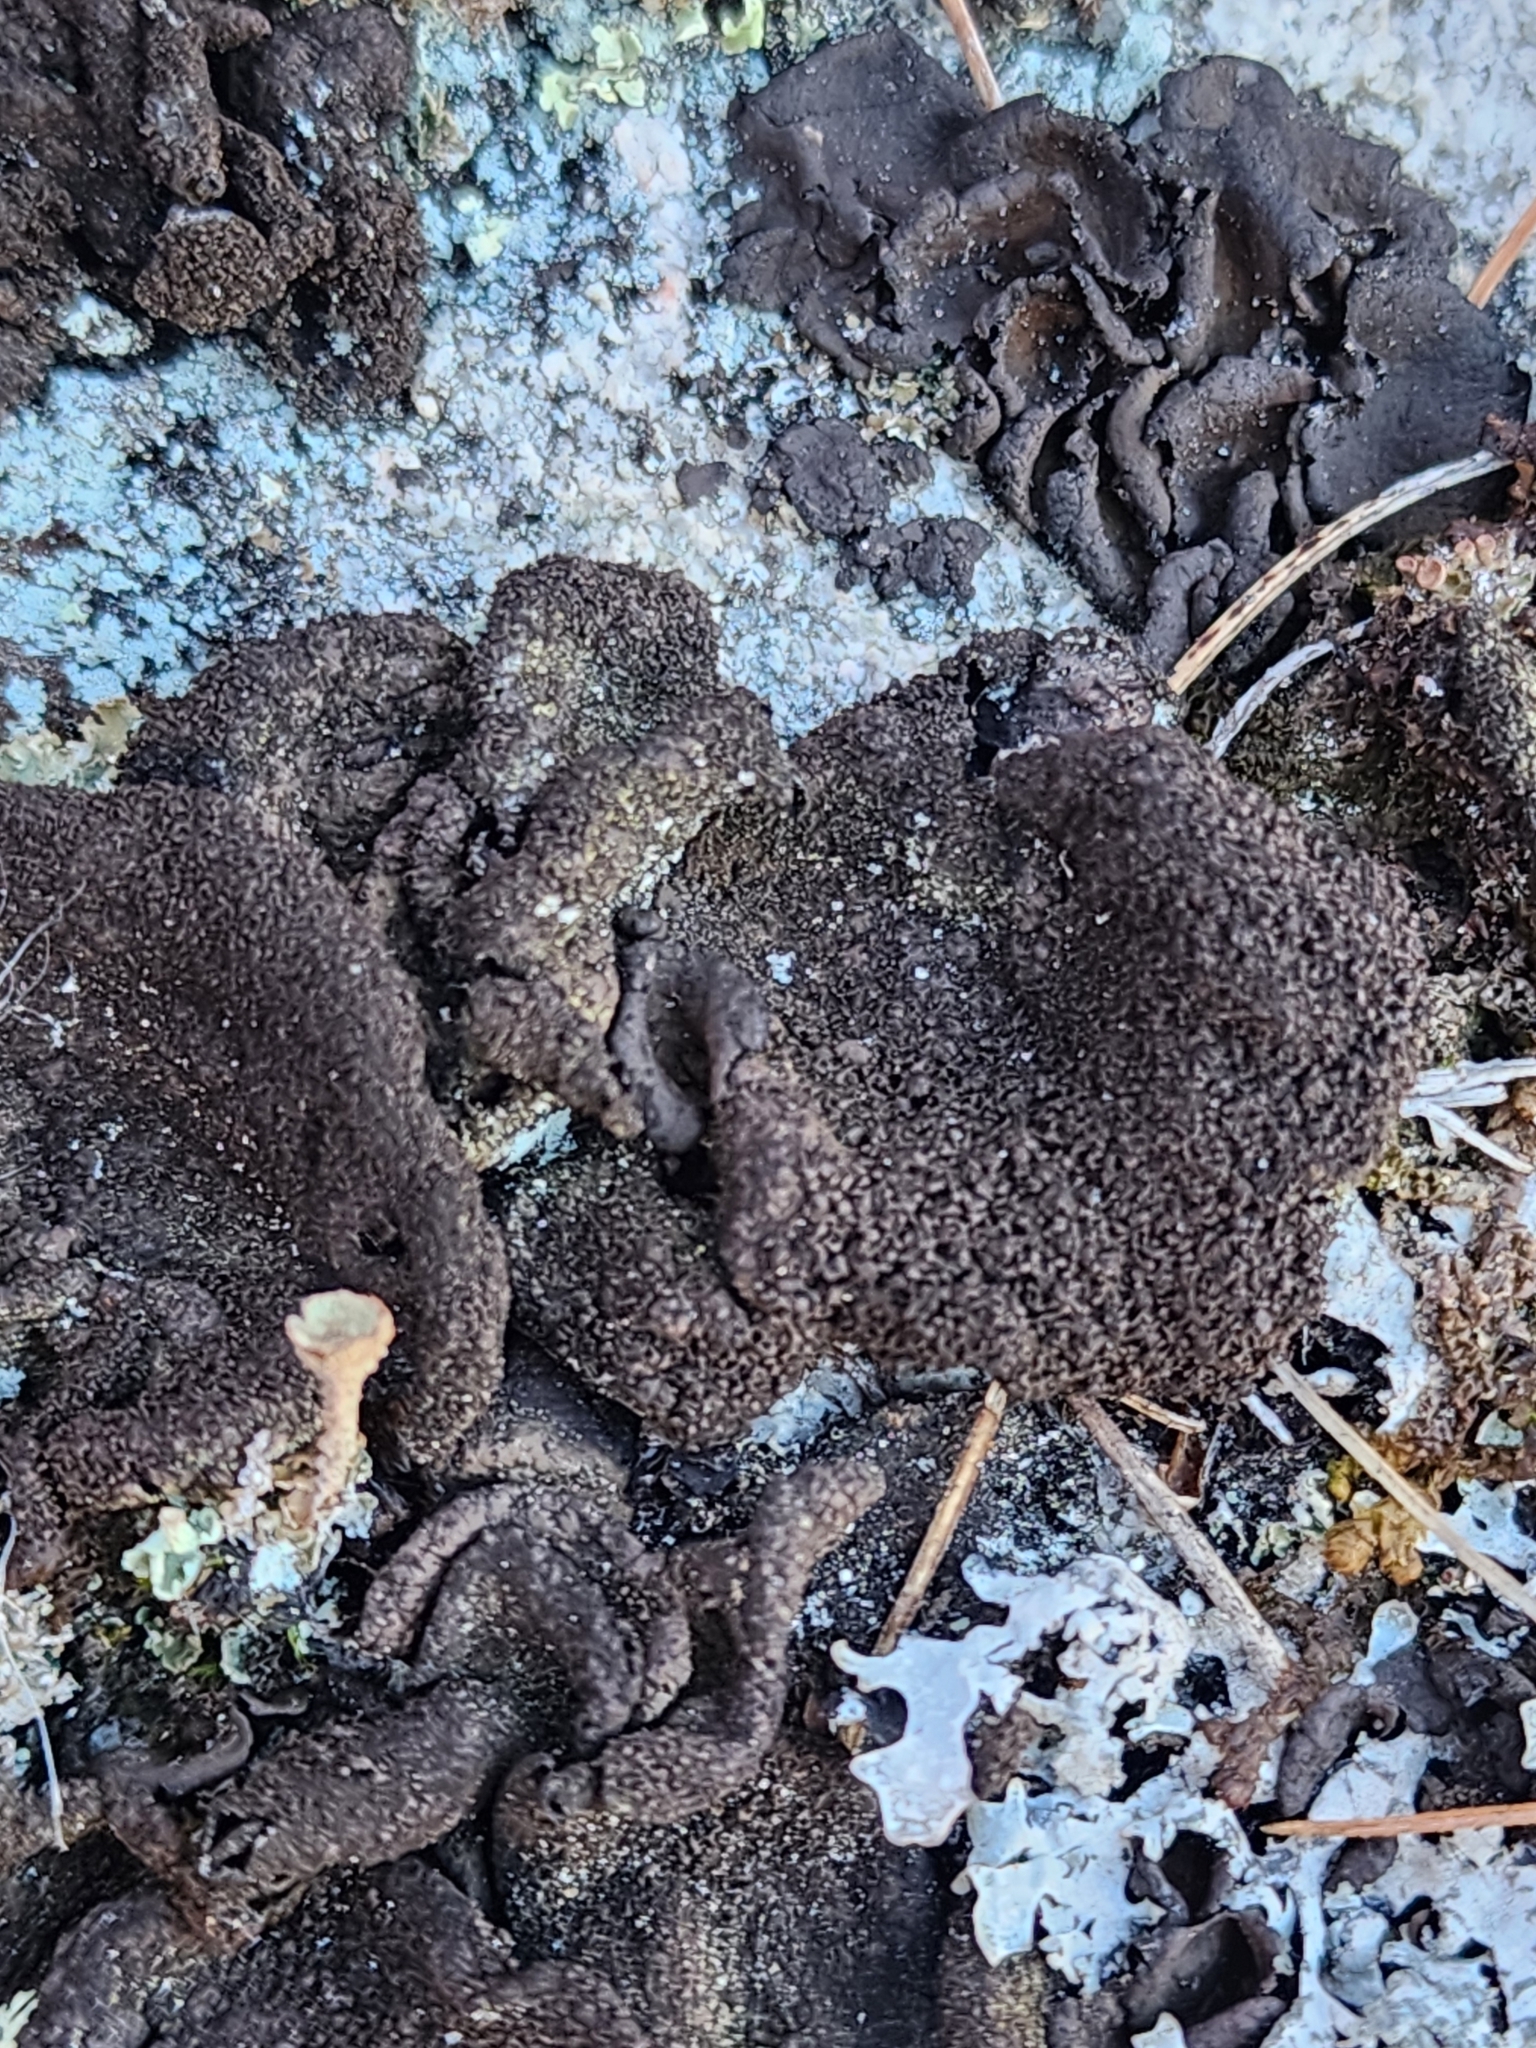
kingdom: Fungi
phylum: Ascomycota
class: Lecanoromycetes
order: Umbilicariales
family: Umbilicariaceae
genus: Umbilicaria
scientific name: Umbilicaria deusta
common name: Peppered rock tripe
